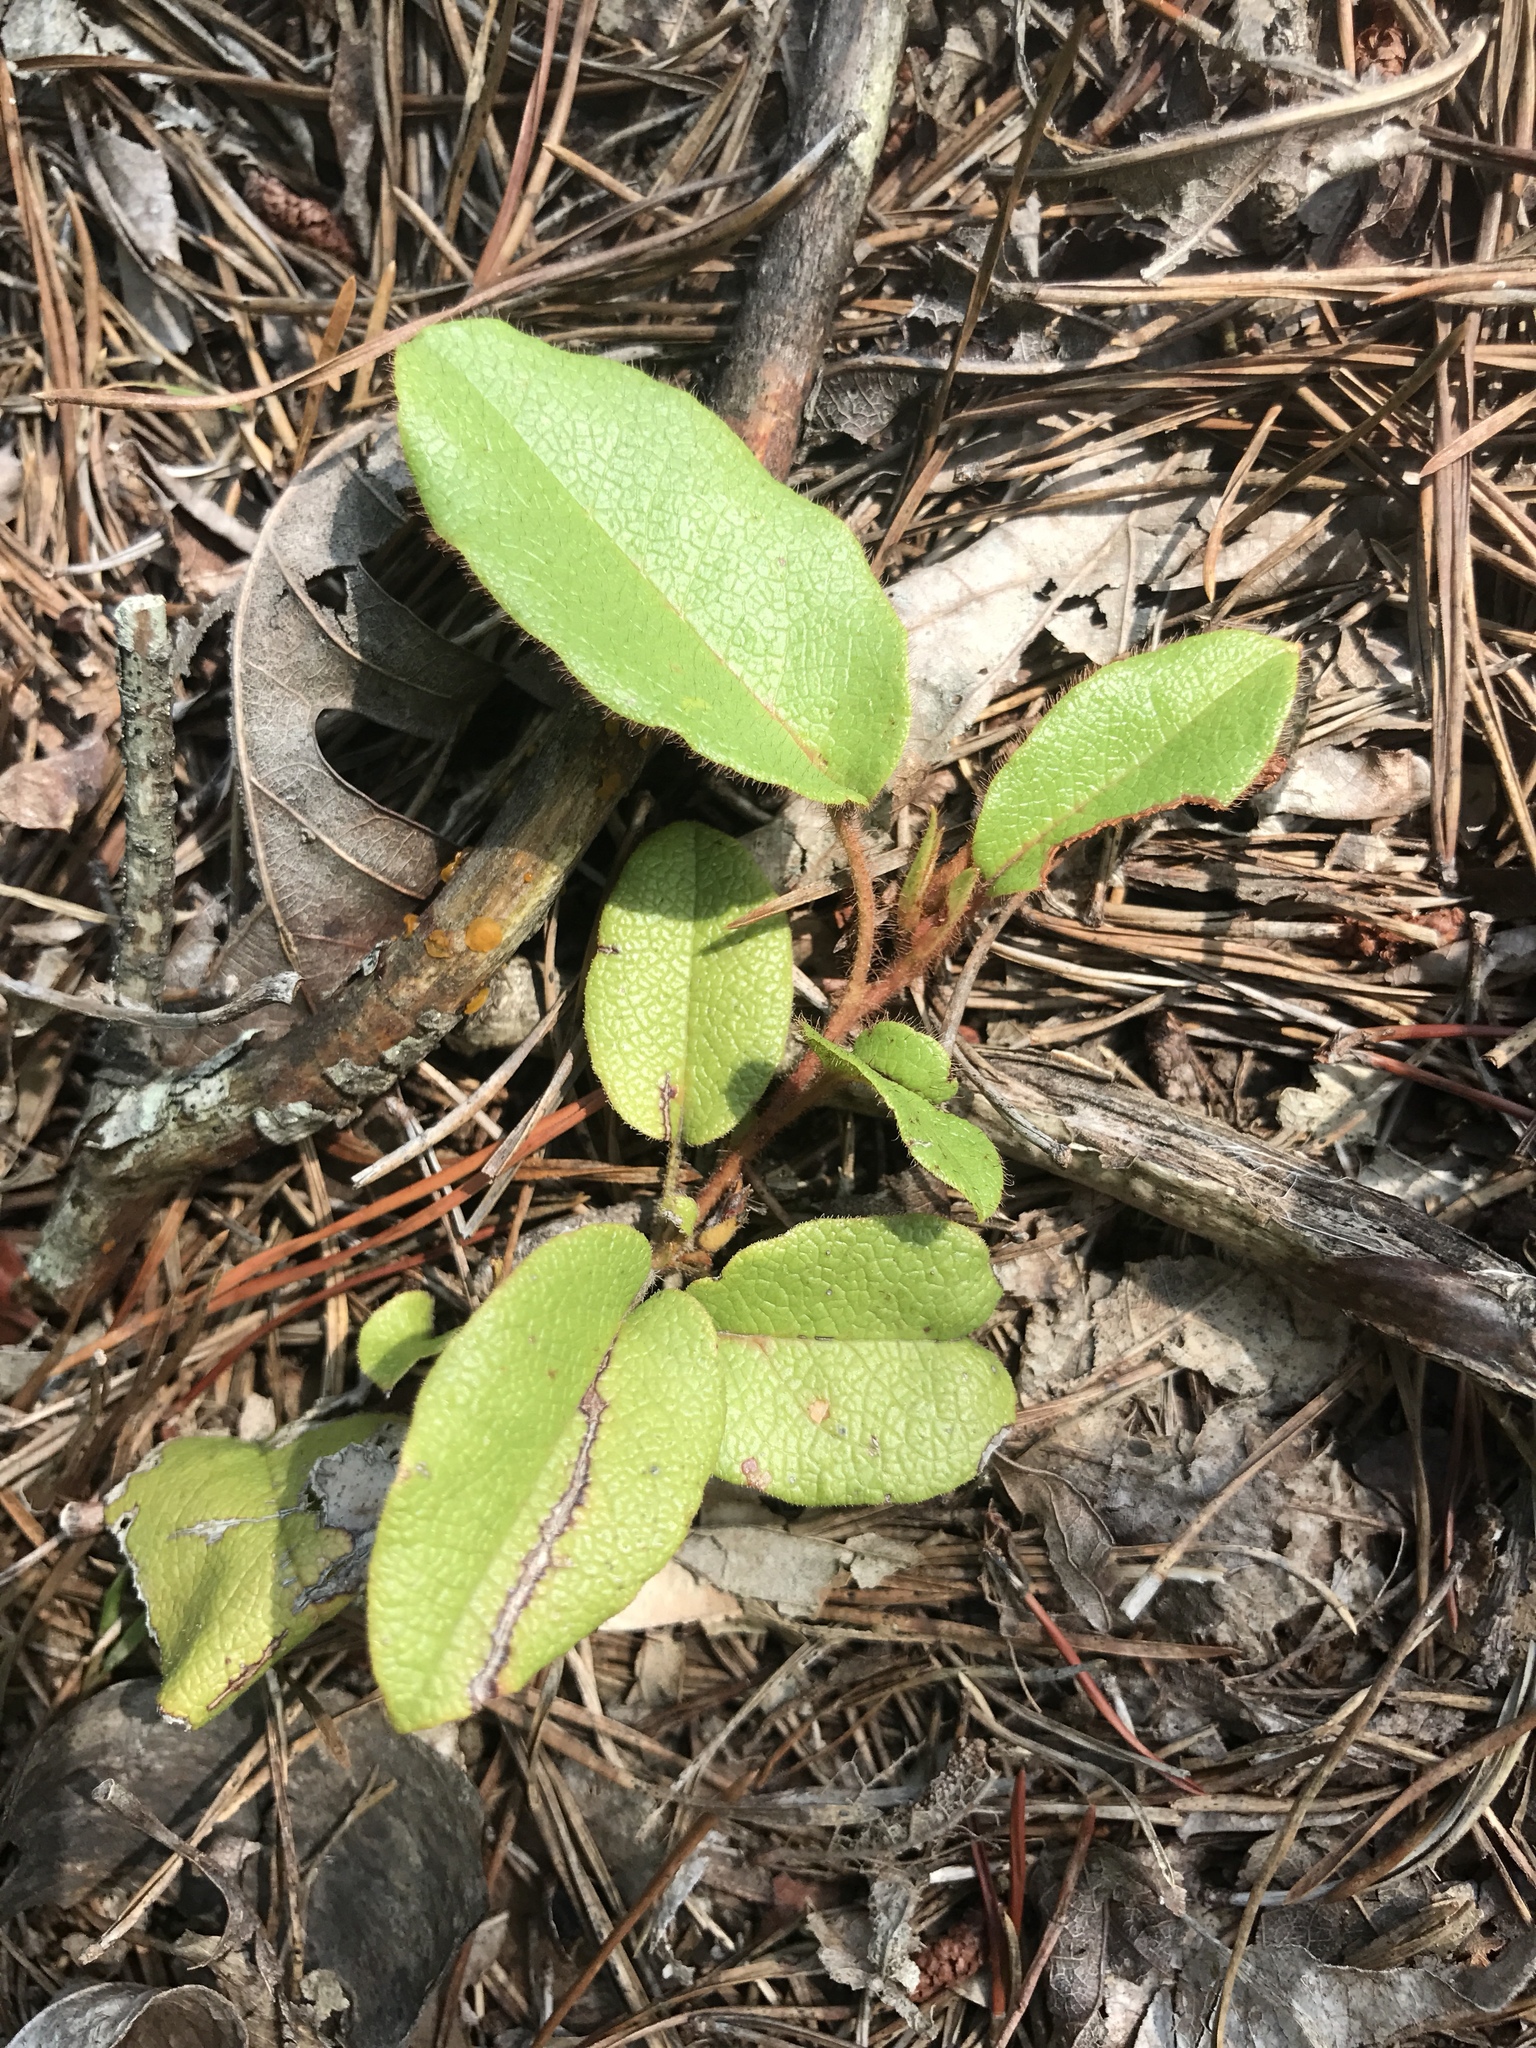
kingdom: Plantae
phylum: Tracheophyta
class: Magnoliopsida
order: Ericales
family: Ericaceae
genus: Epigaea
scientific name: Epigaea repens
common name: Gravelroot
